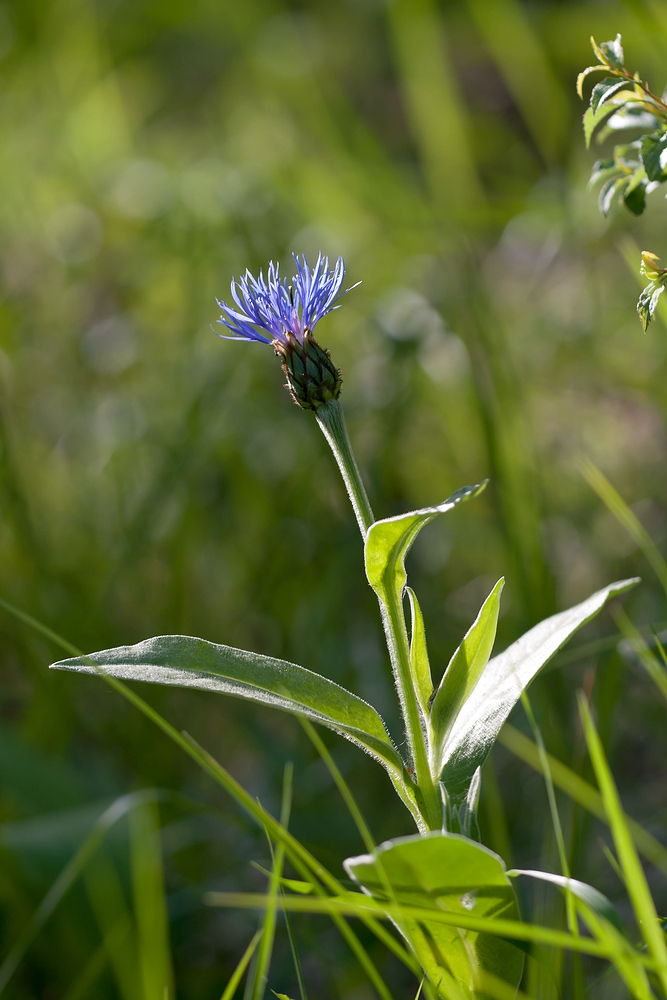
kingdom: Plantae
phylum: Tracheophyta
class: Magnoliopsida
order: Asterales
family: Asteraceae
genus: Centaurea
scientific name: Centaurea montana
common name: Perennial cornflower
